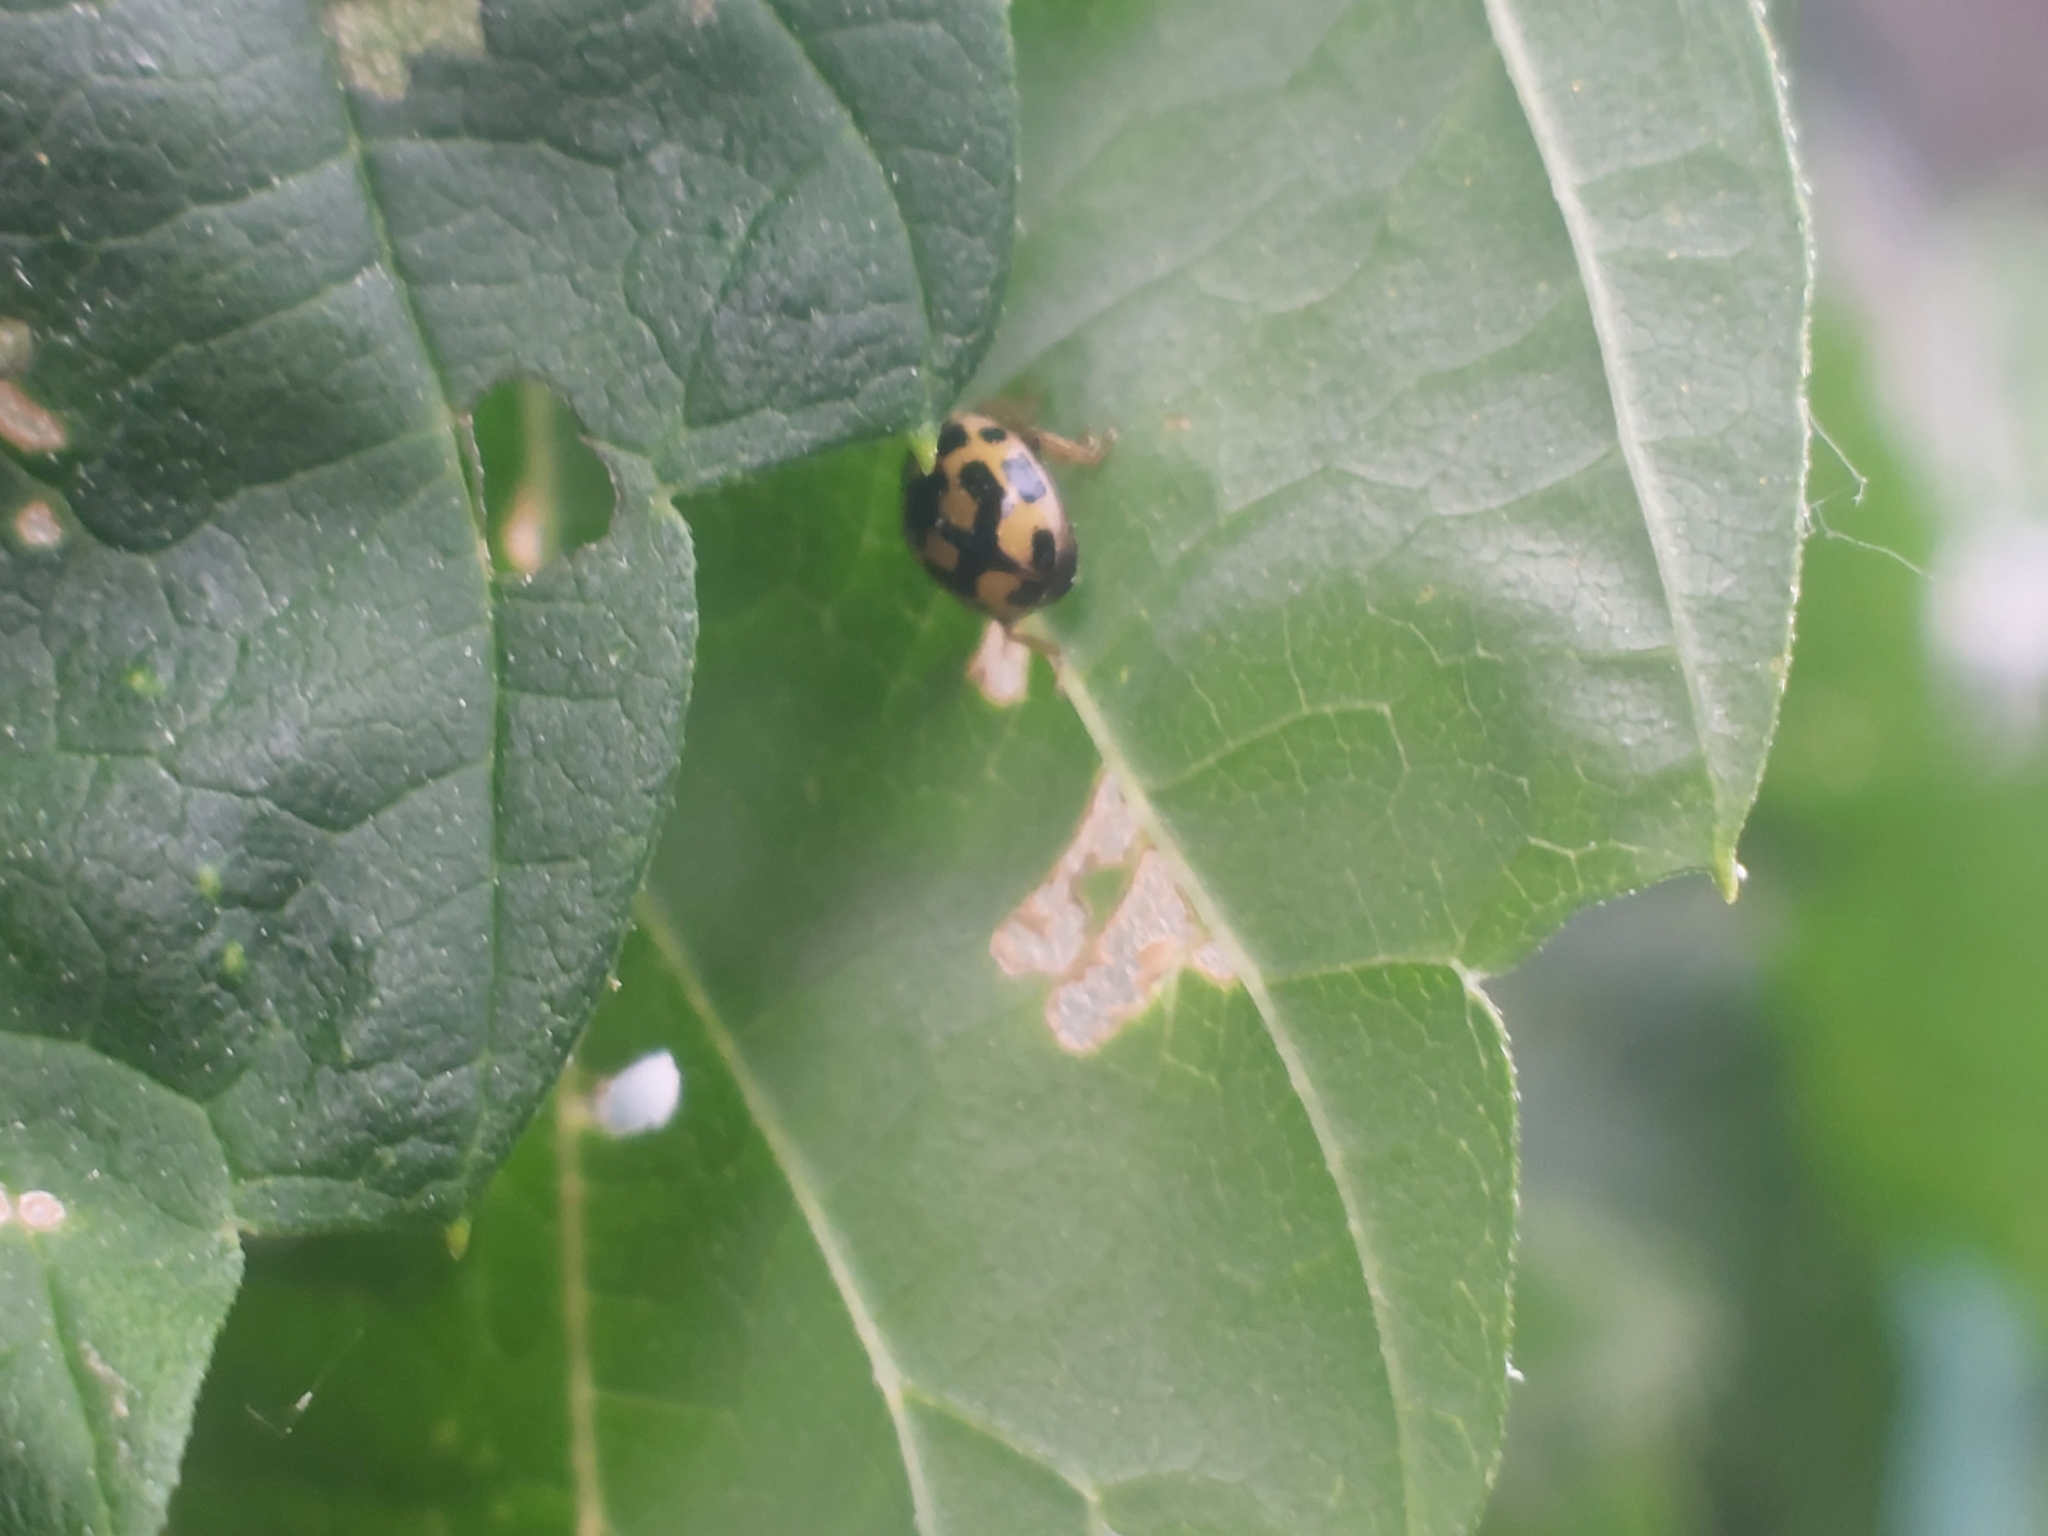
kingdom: Animalia
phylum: Arthropoda
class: Insecta
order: Coleoptera
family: Coccinellidae
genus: Propylaea
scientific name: Propylaea quatuordecimpunctata
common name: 14-spotted ladybird beetle
